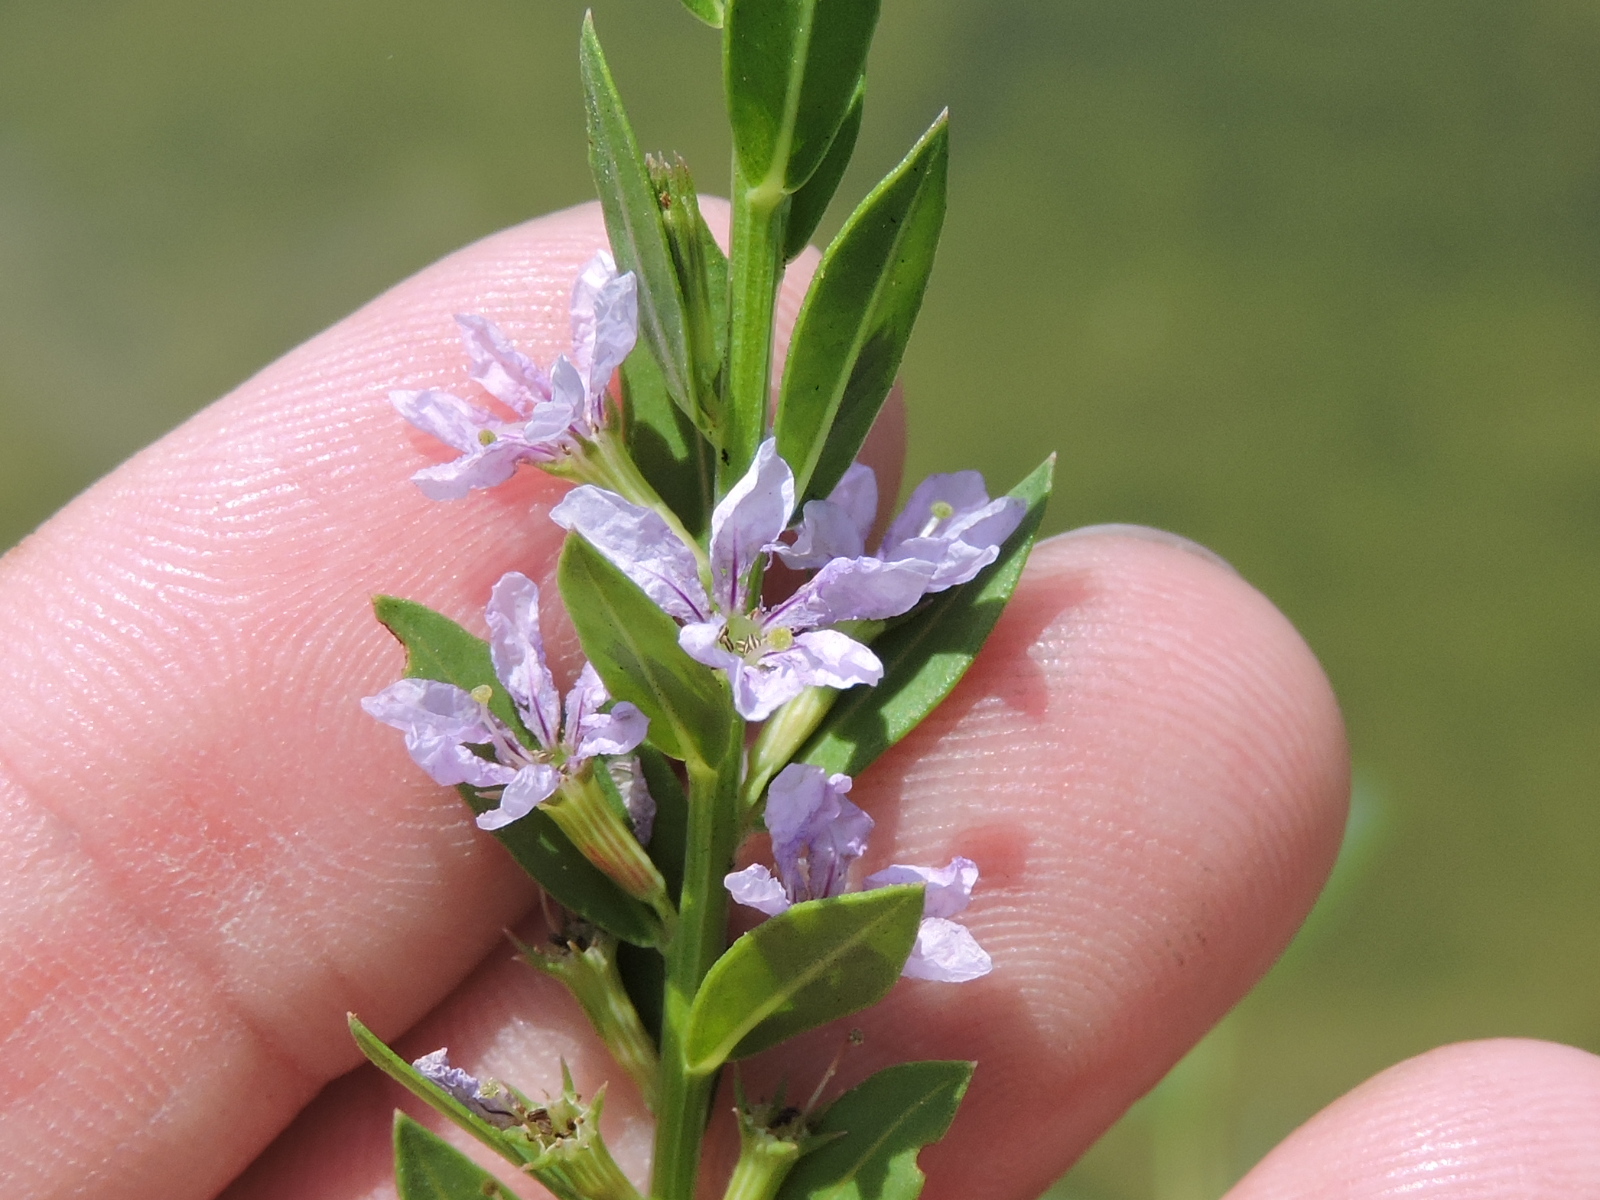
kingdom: Plantae
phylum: Tracheophyta
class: Magnoliopsida
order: Myrtales
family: Lythraceae
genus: Lythrum
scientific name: Lythrum alatum
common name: Winged loosestrife
